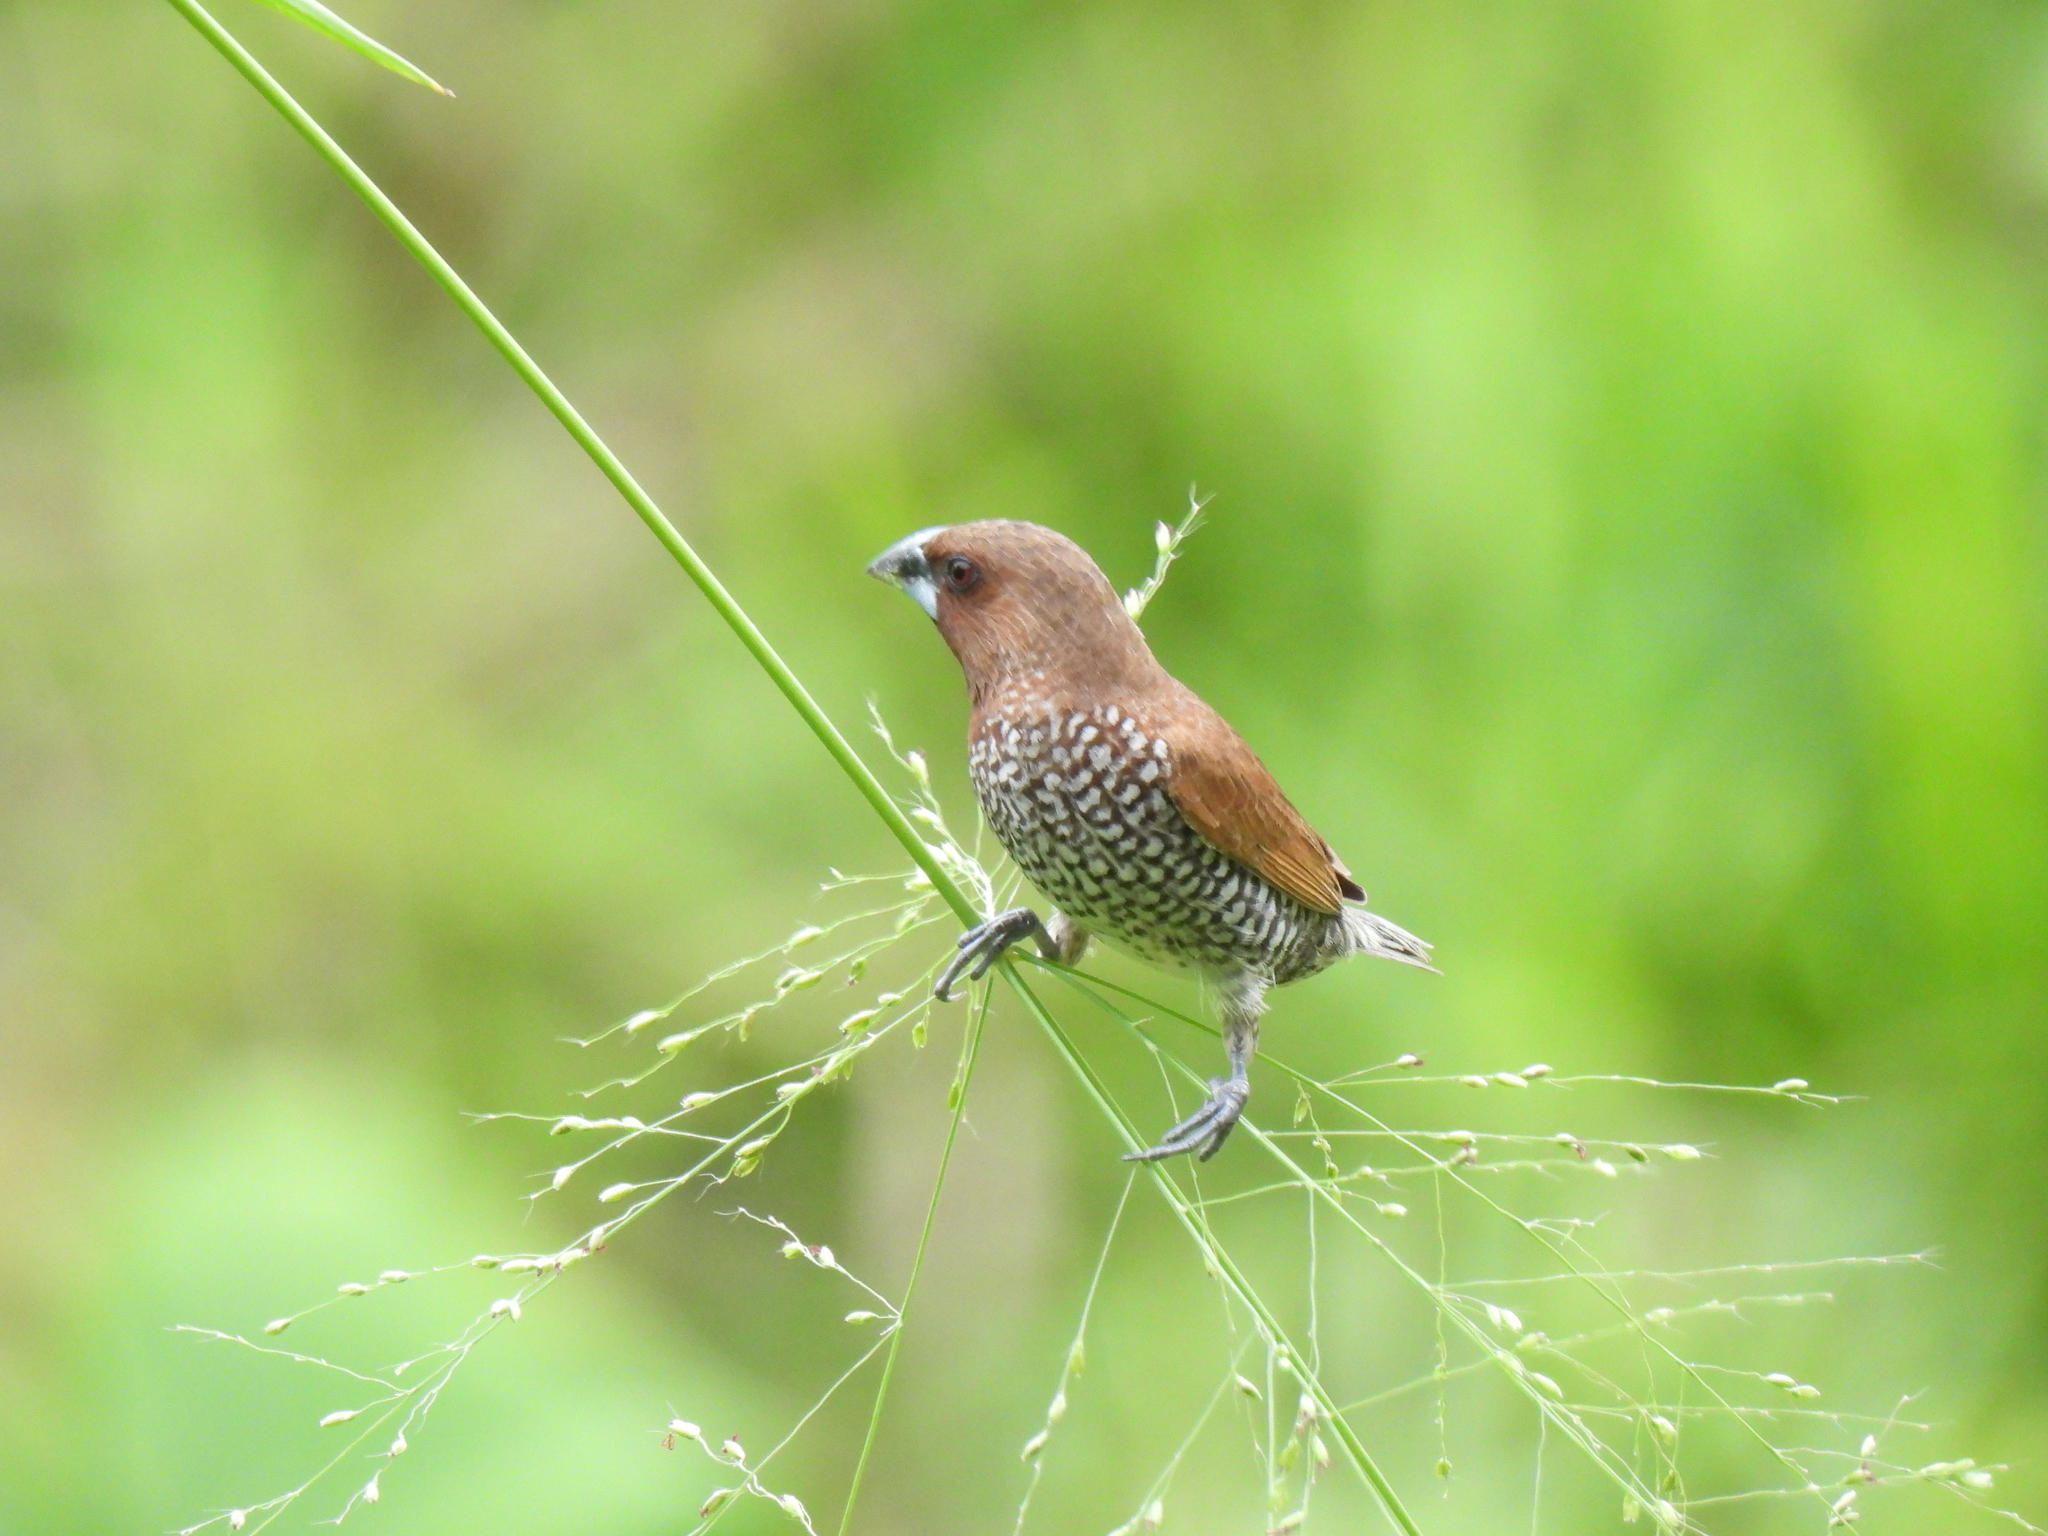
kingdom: Animalia
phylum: Chordata
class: Aves
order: Passeriformes
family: Estrildidae
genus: Lonchura
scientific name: Lonchura punctulata
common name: Scaly-breasted munia
